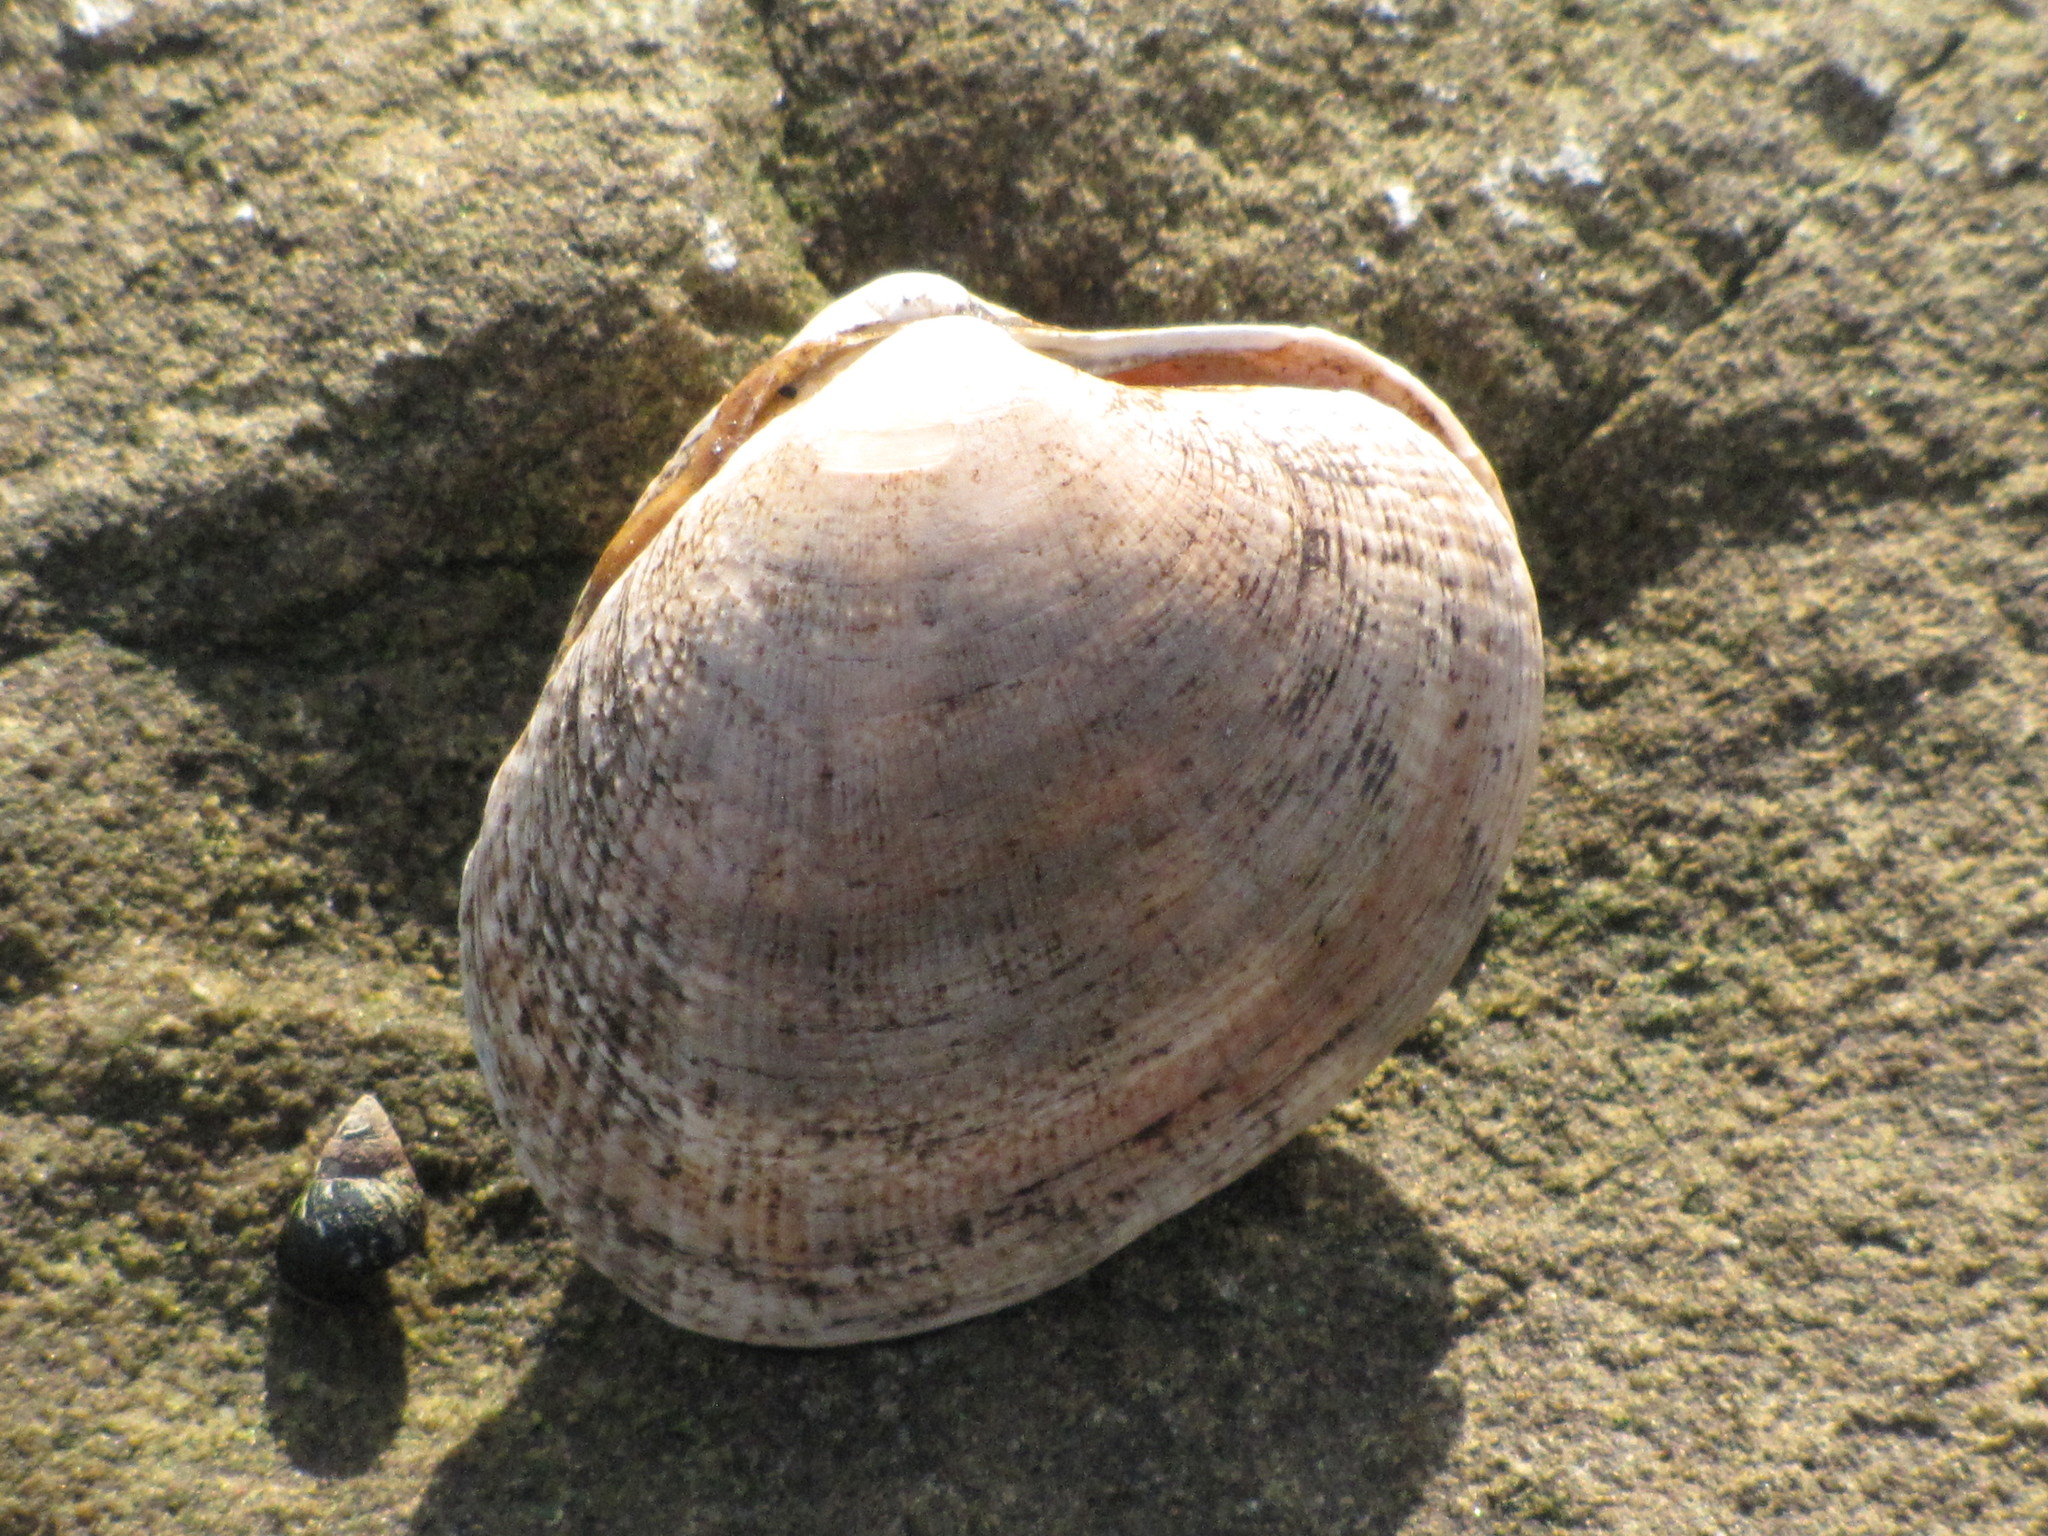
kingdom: Animalia
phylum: Mollusca
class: Bivalvia
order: Venerida
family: Veneridae
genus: Ruditapes
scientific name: Ruditapes philippinarum
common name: Manila clam
